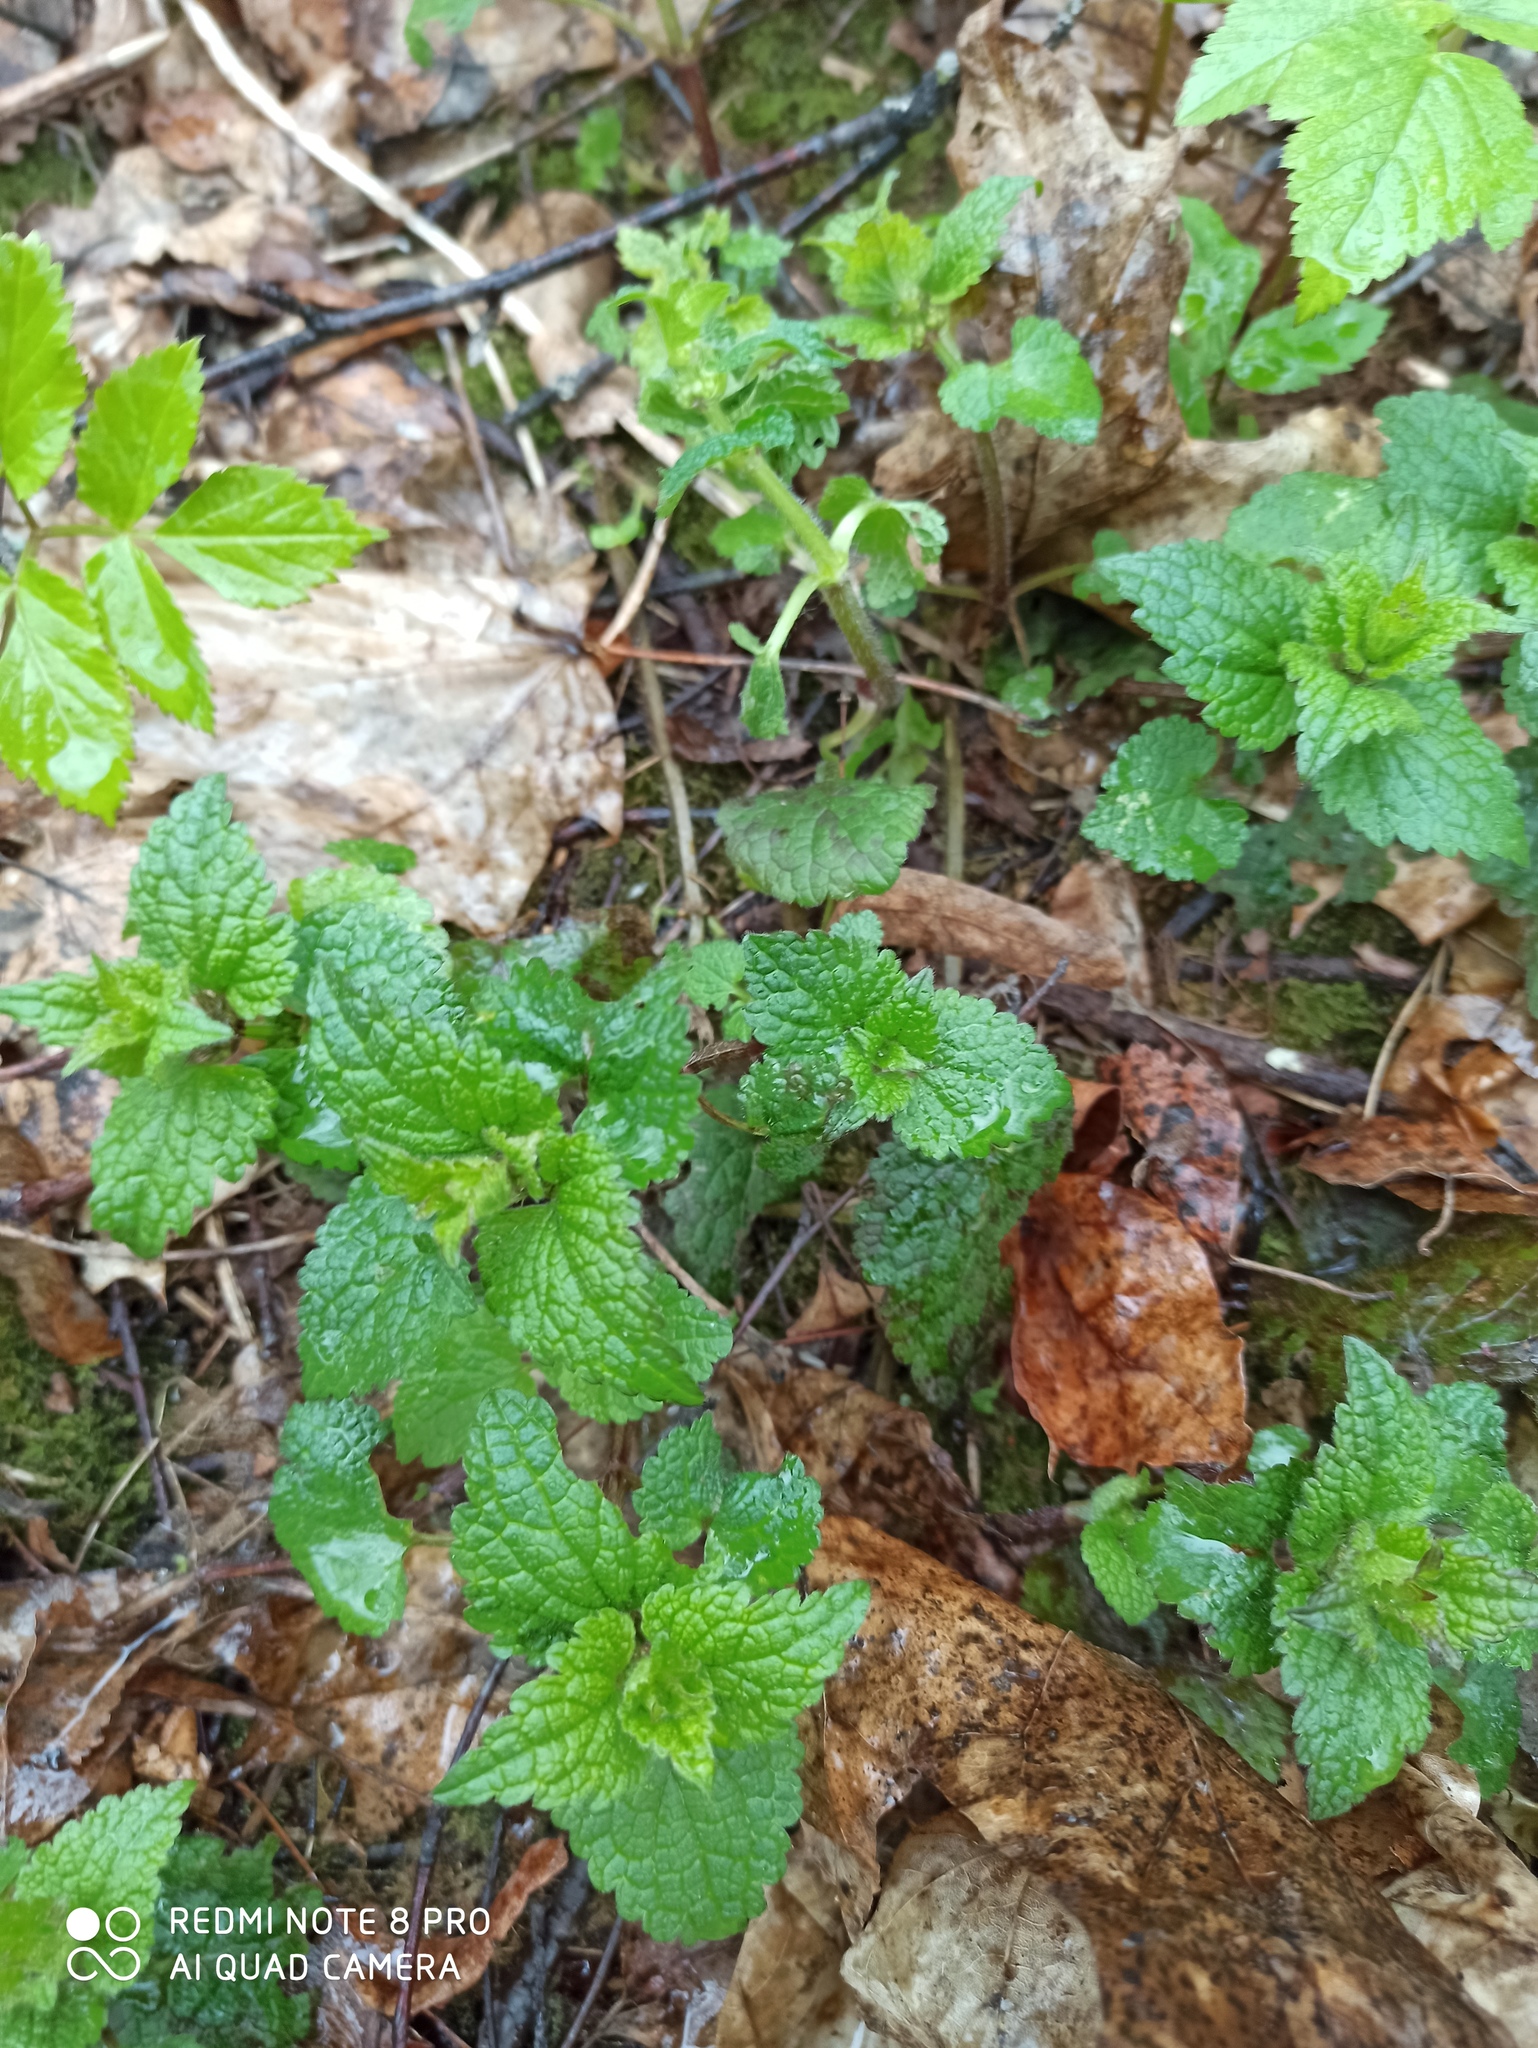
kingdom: Plantae
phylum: Tracheophyta
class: Magnoliopsida
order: Lamiales
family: Lamiaceae
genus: Lamium
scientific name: Lamium album
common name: White dead-nettle
